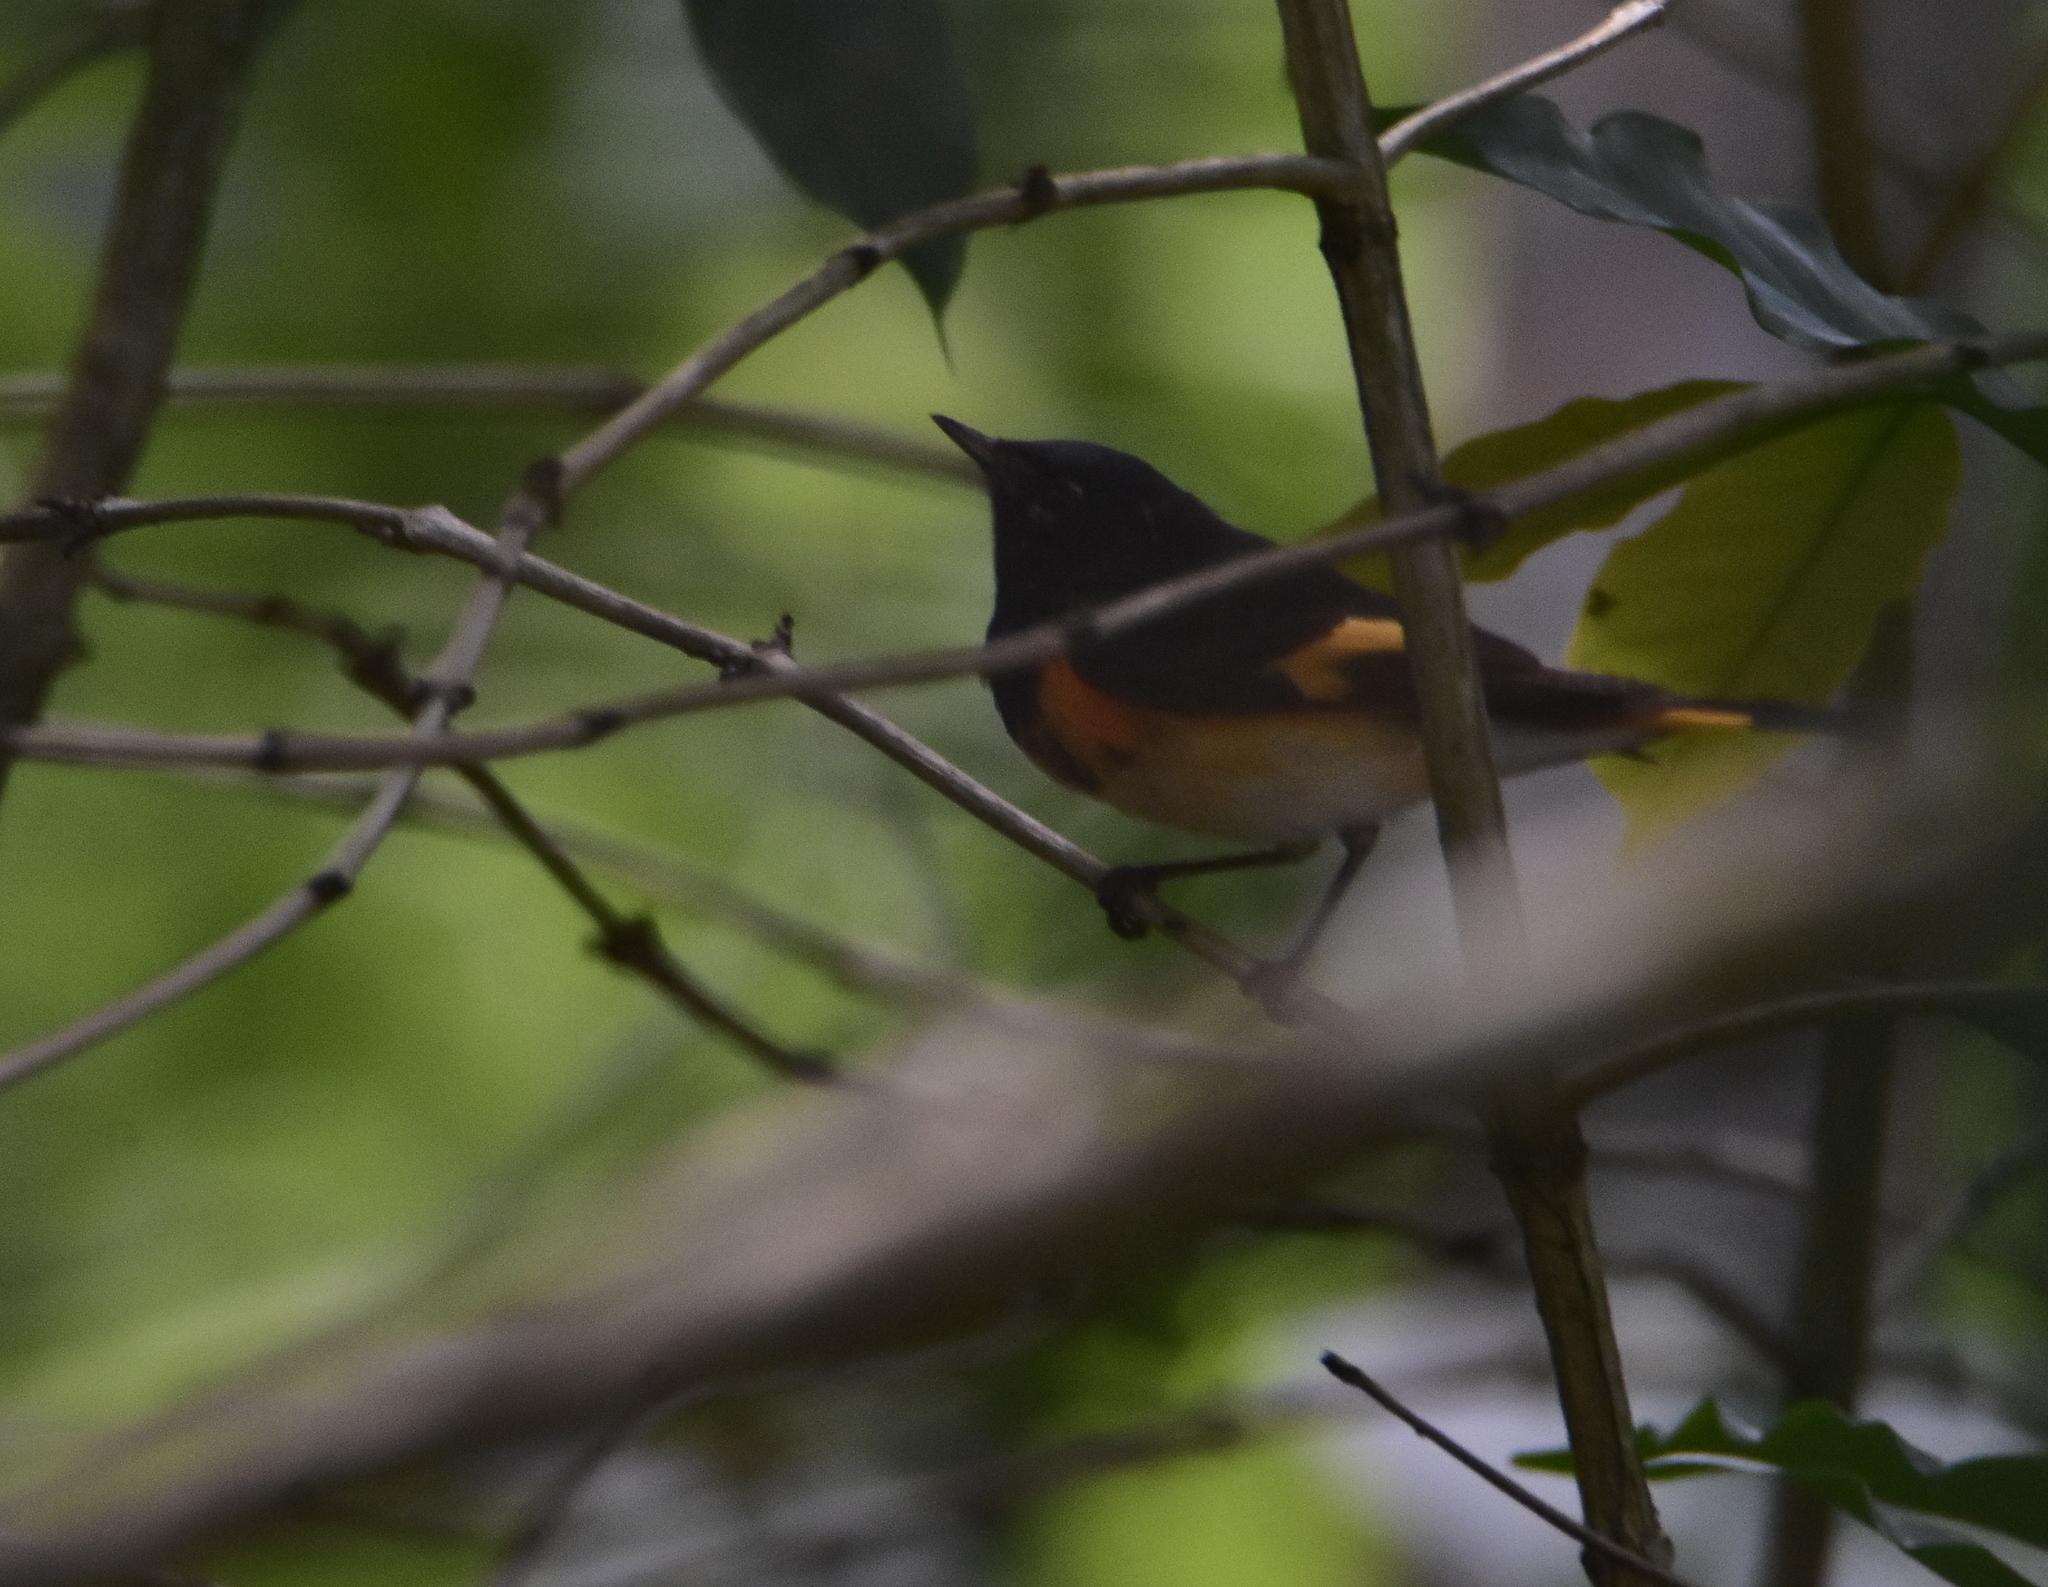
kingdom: Animalia
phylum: Chordata
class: Aves
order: Passeriformes
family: Parulidae
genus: Setophaga
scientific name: Setophaga ruticilla
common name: American redstart
